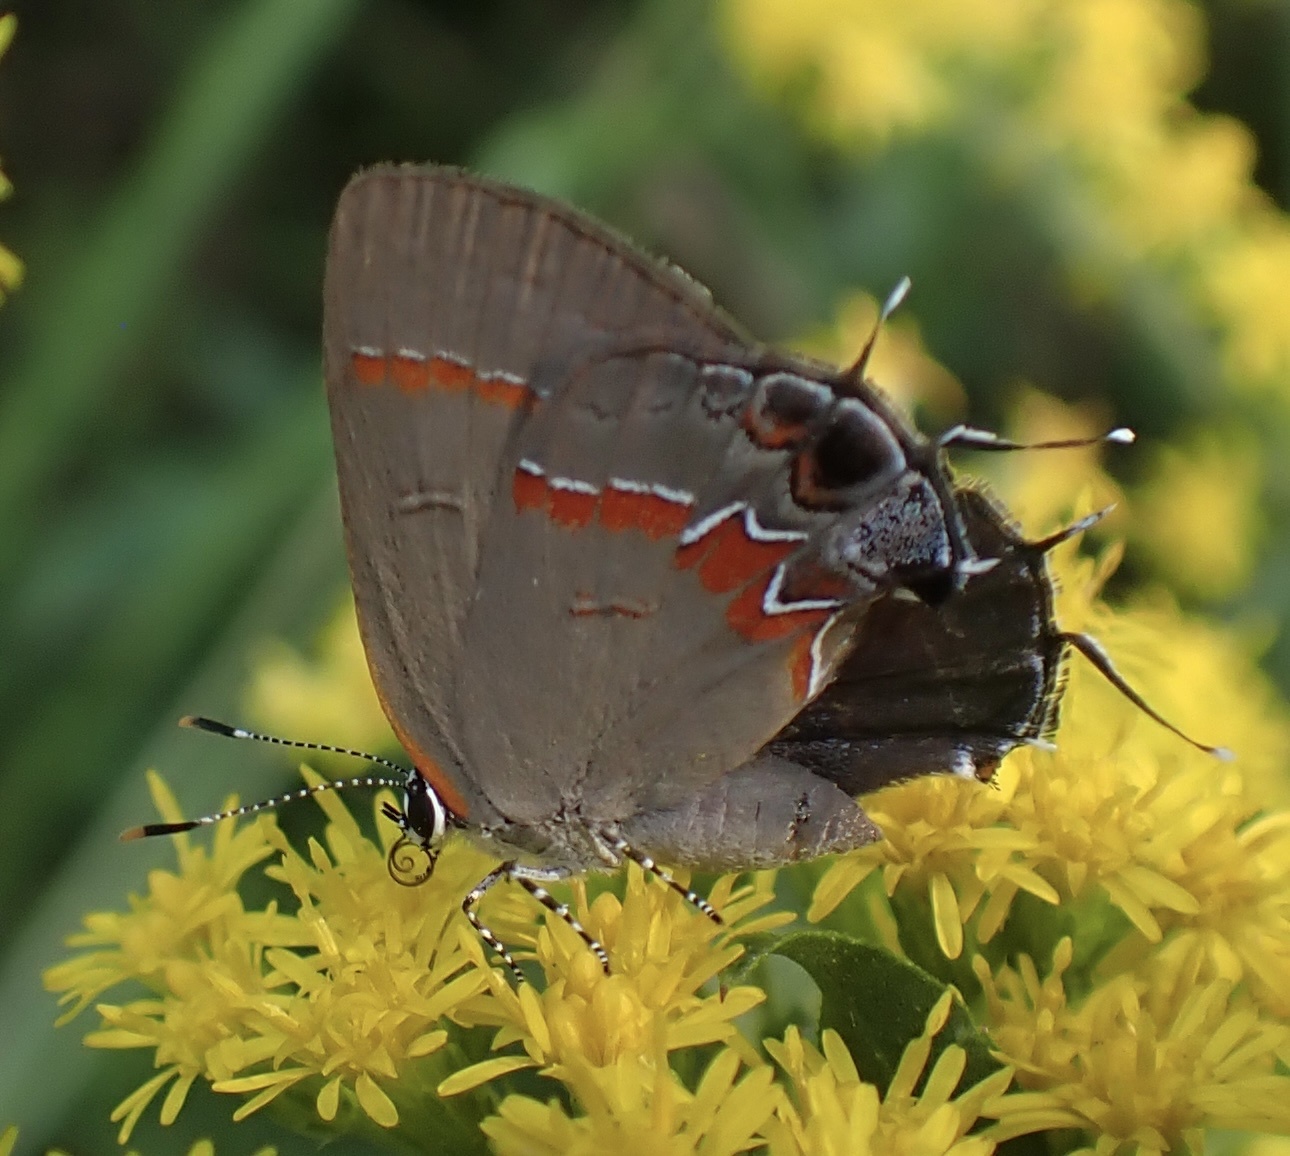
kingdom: Animalia
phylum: Arthropoda
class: Insecta
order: Lepidoptera
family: Lycaenidae
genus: Calycopis
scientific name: Calycopis cecrops
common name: Red-banded hairstreak
